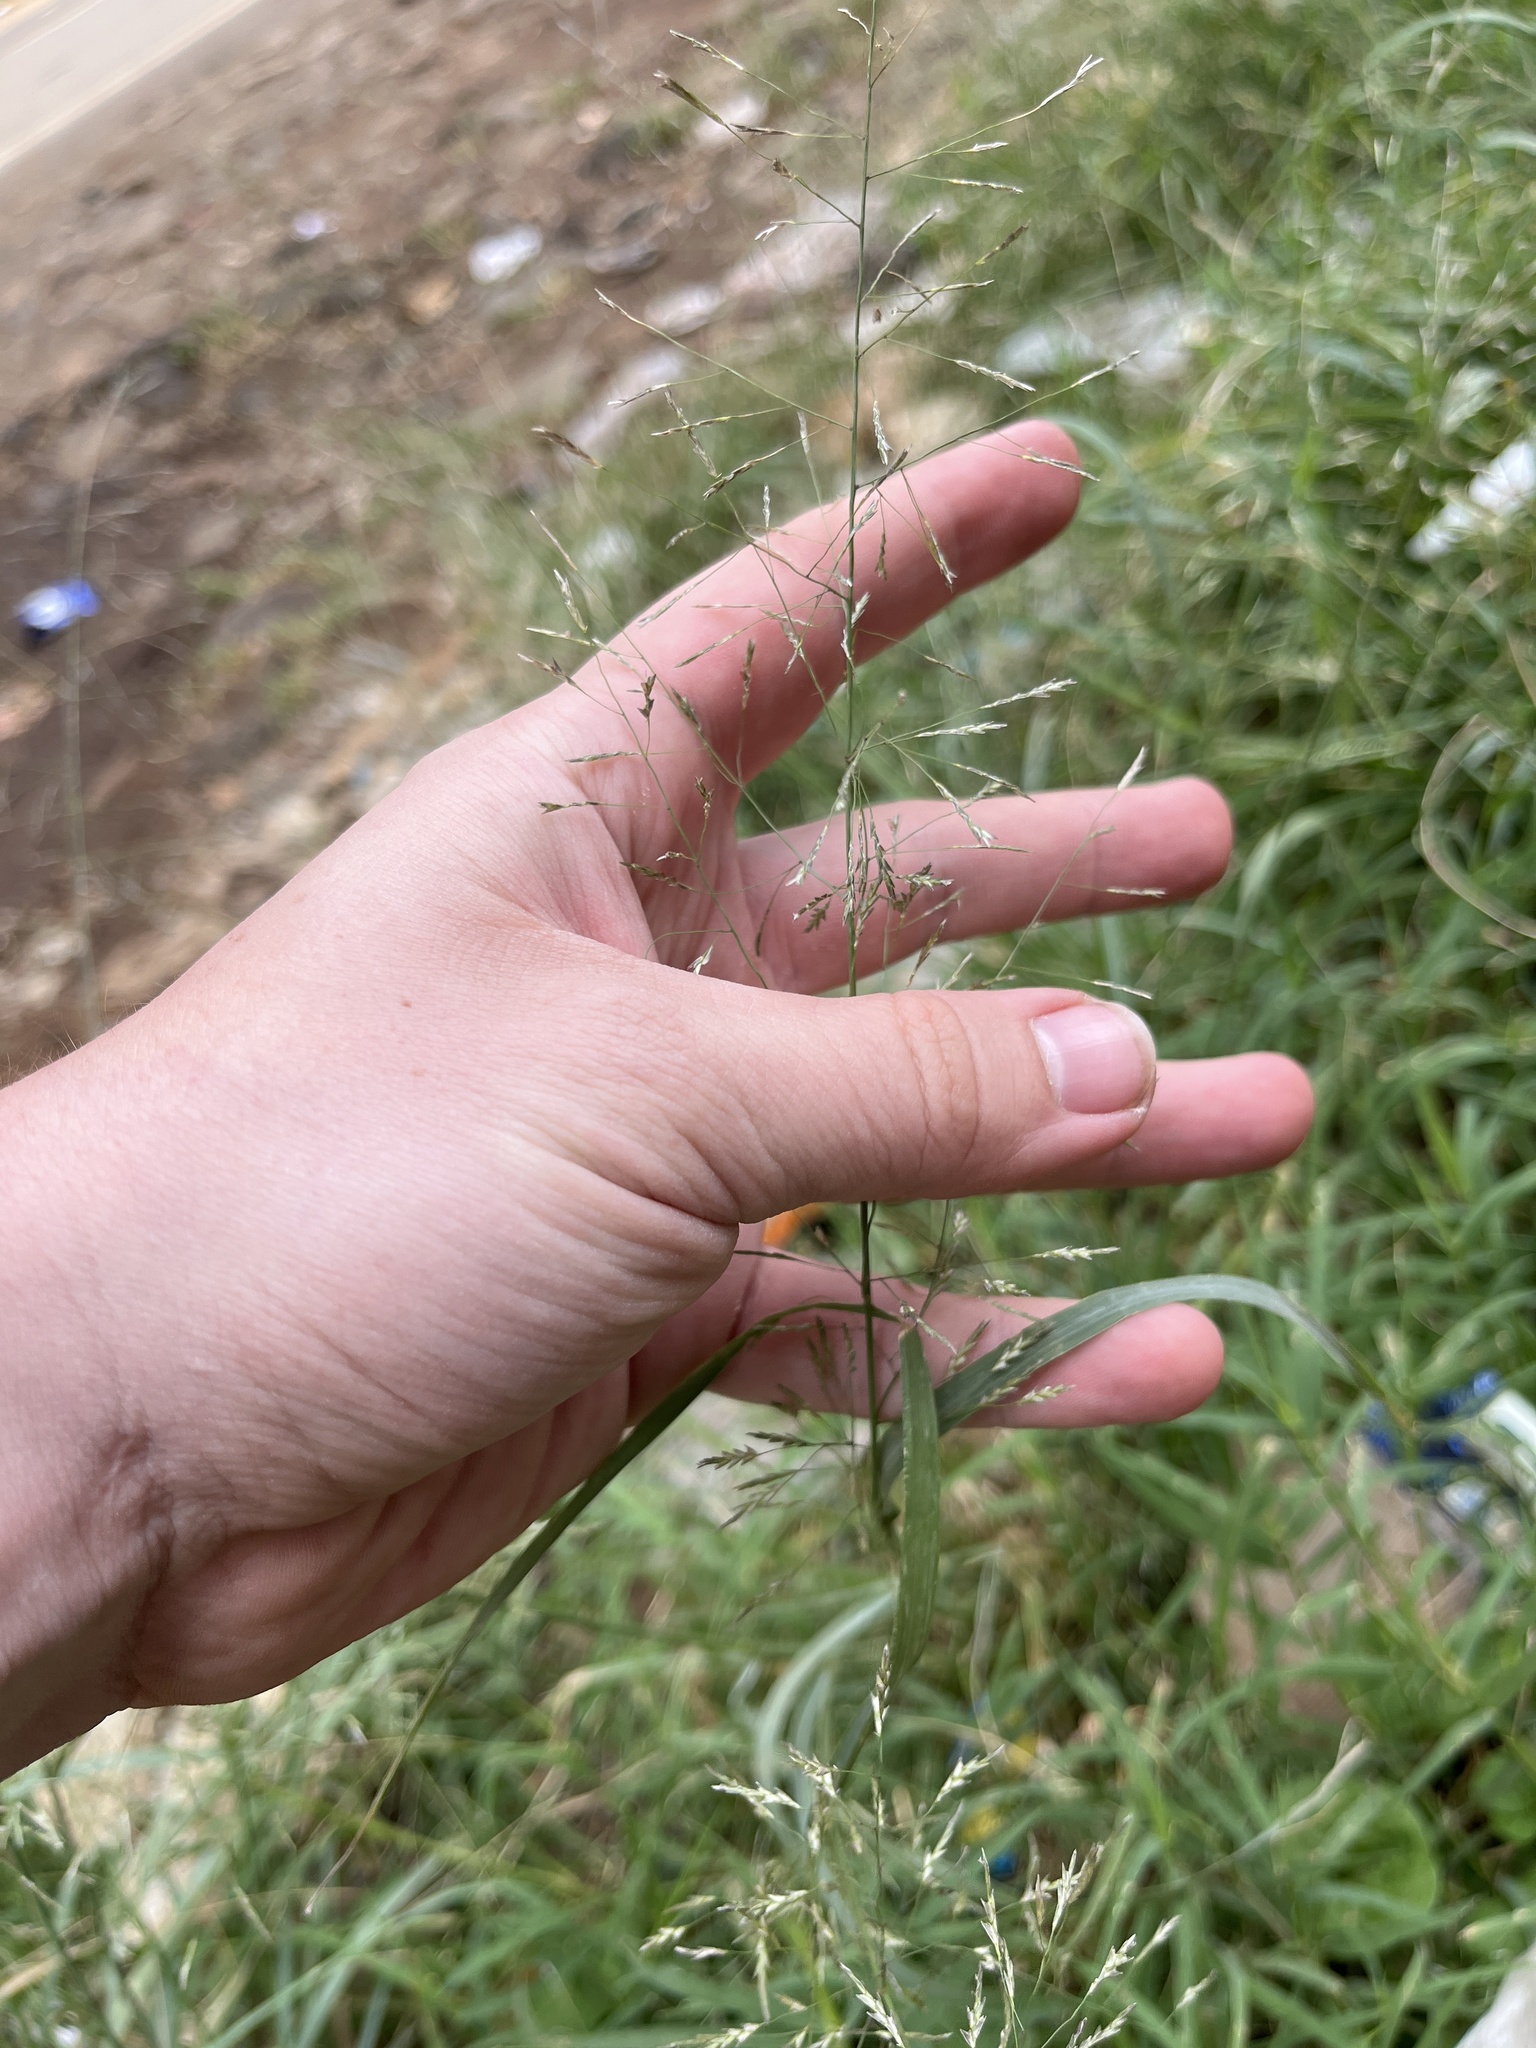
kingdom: Plantae
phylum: Tracheophyta
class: Liliopsida
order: Poales
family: Poaceae
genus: Eragrostis
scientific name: Eragrostis tenuifolia
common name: Elastic grass
